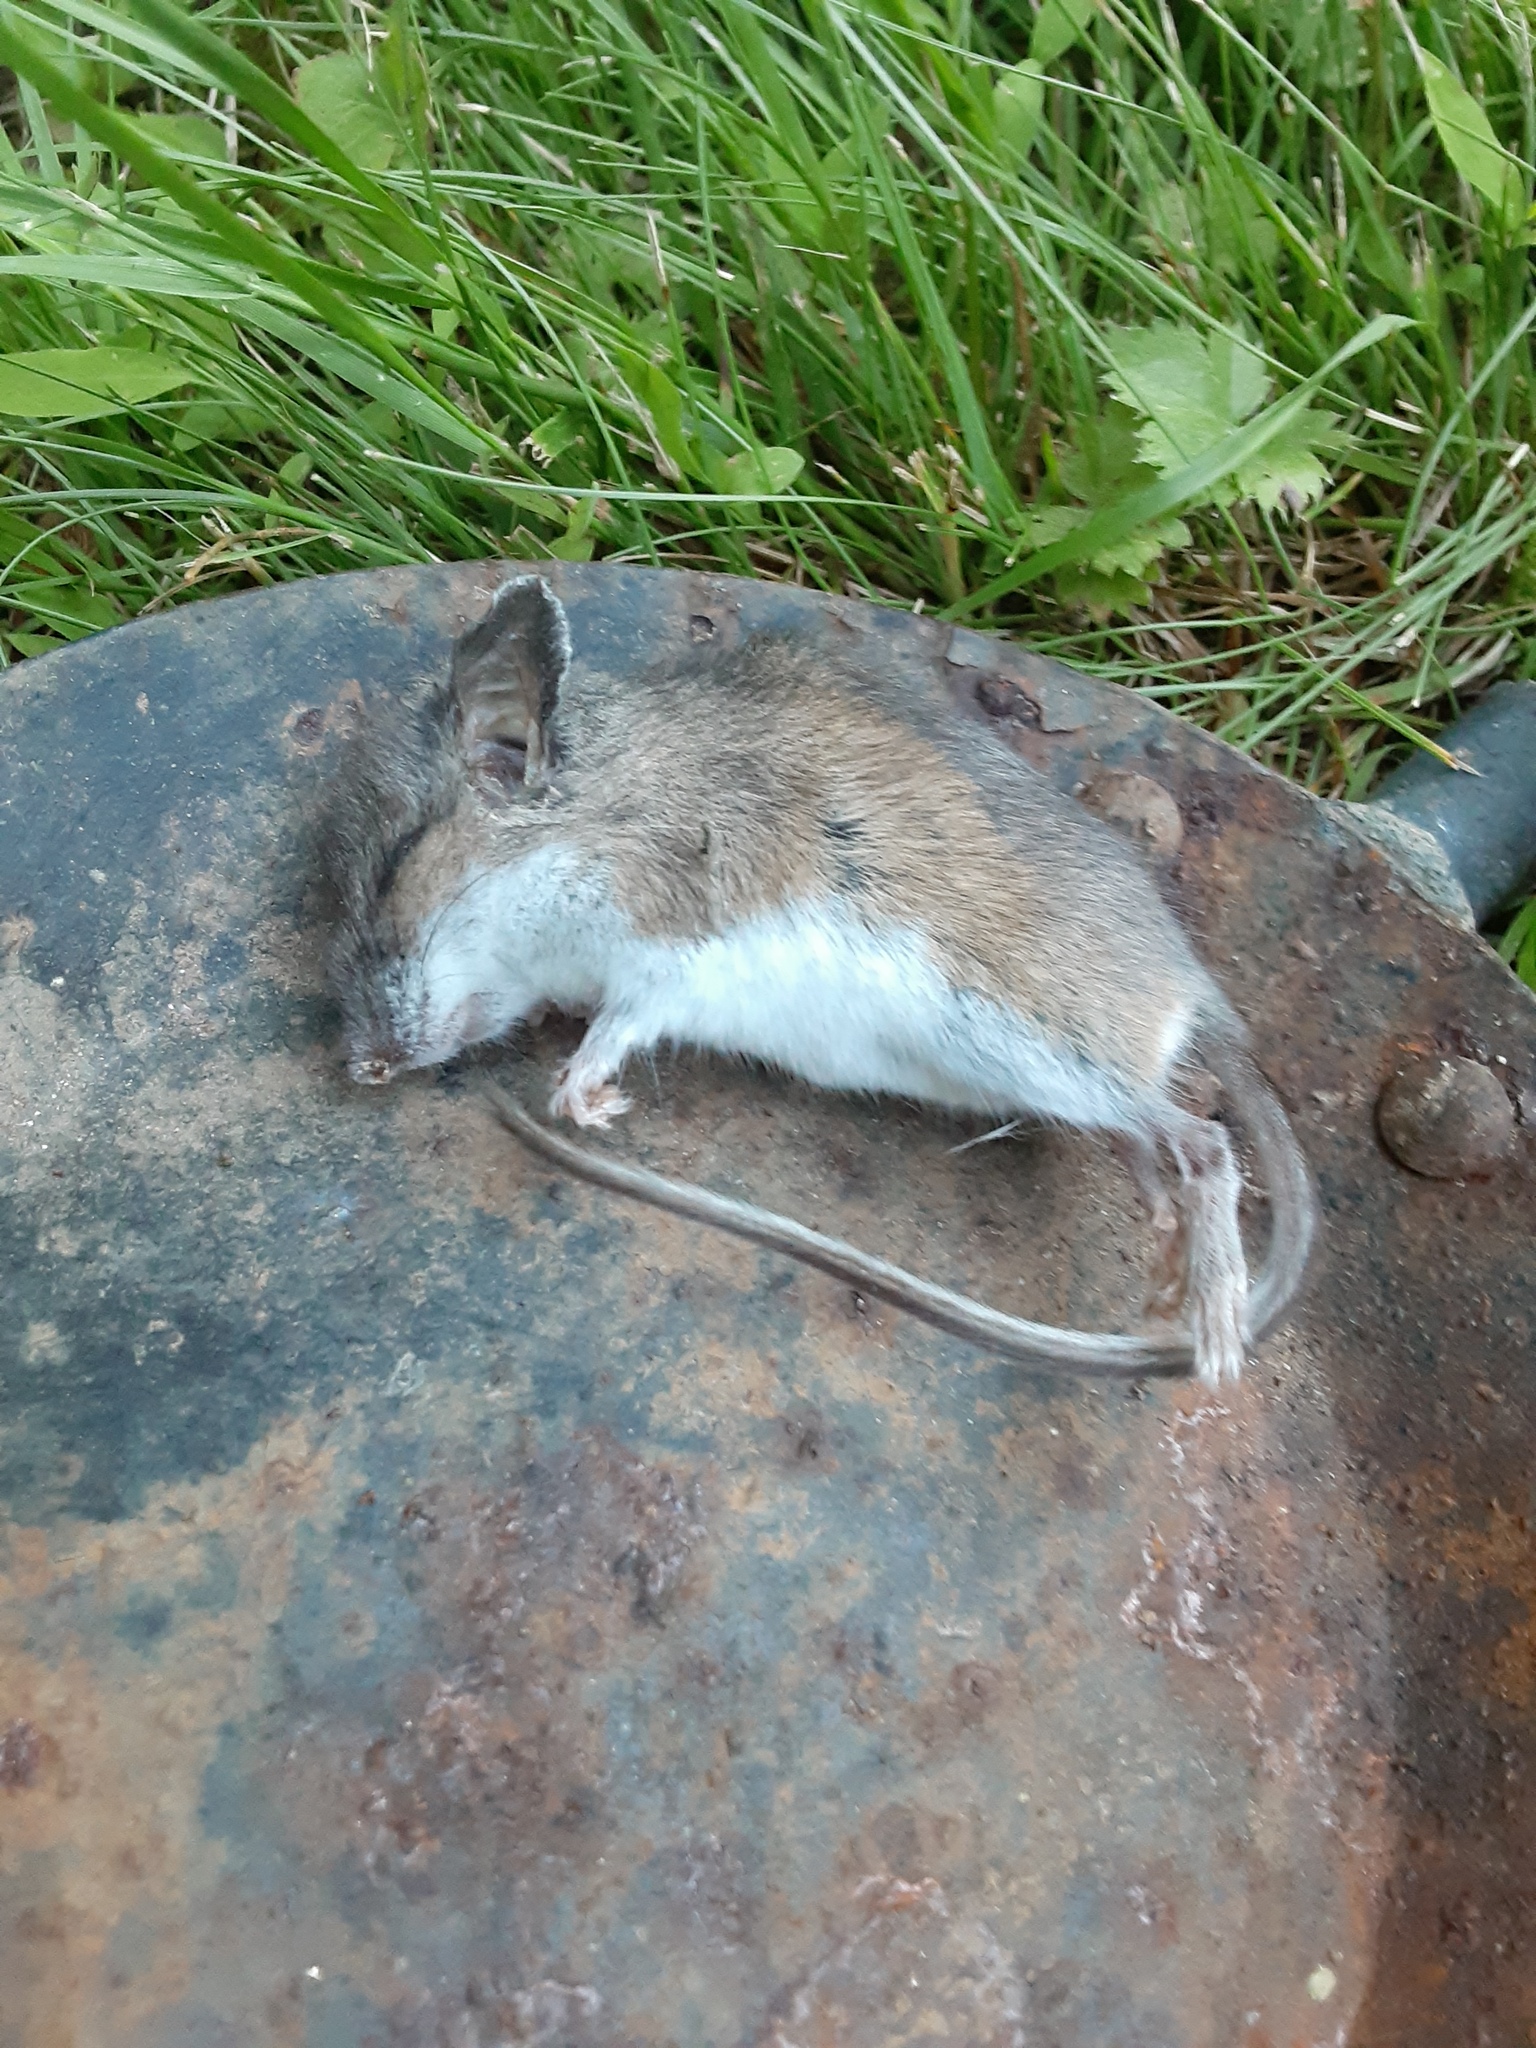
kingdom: Animalia
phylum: Chordata
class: Mammalia
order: Rodentia
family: Cricetidae
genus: Peromyscus
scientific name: Peromyscus leucopus
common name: White-footed deermouse
